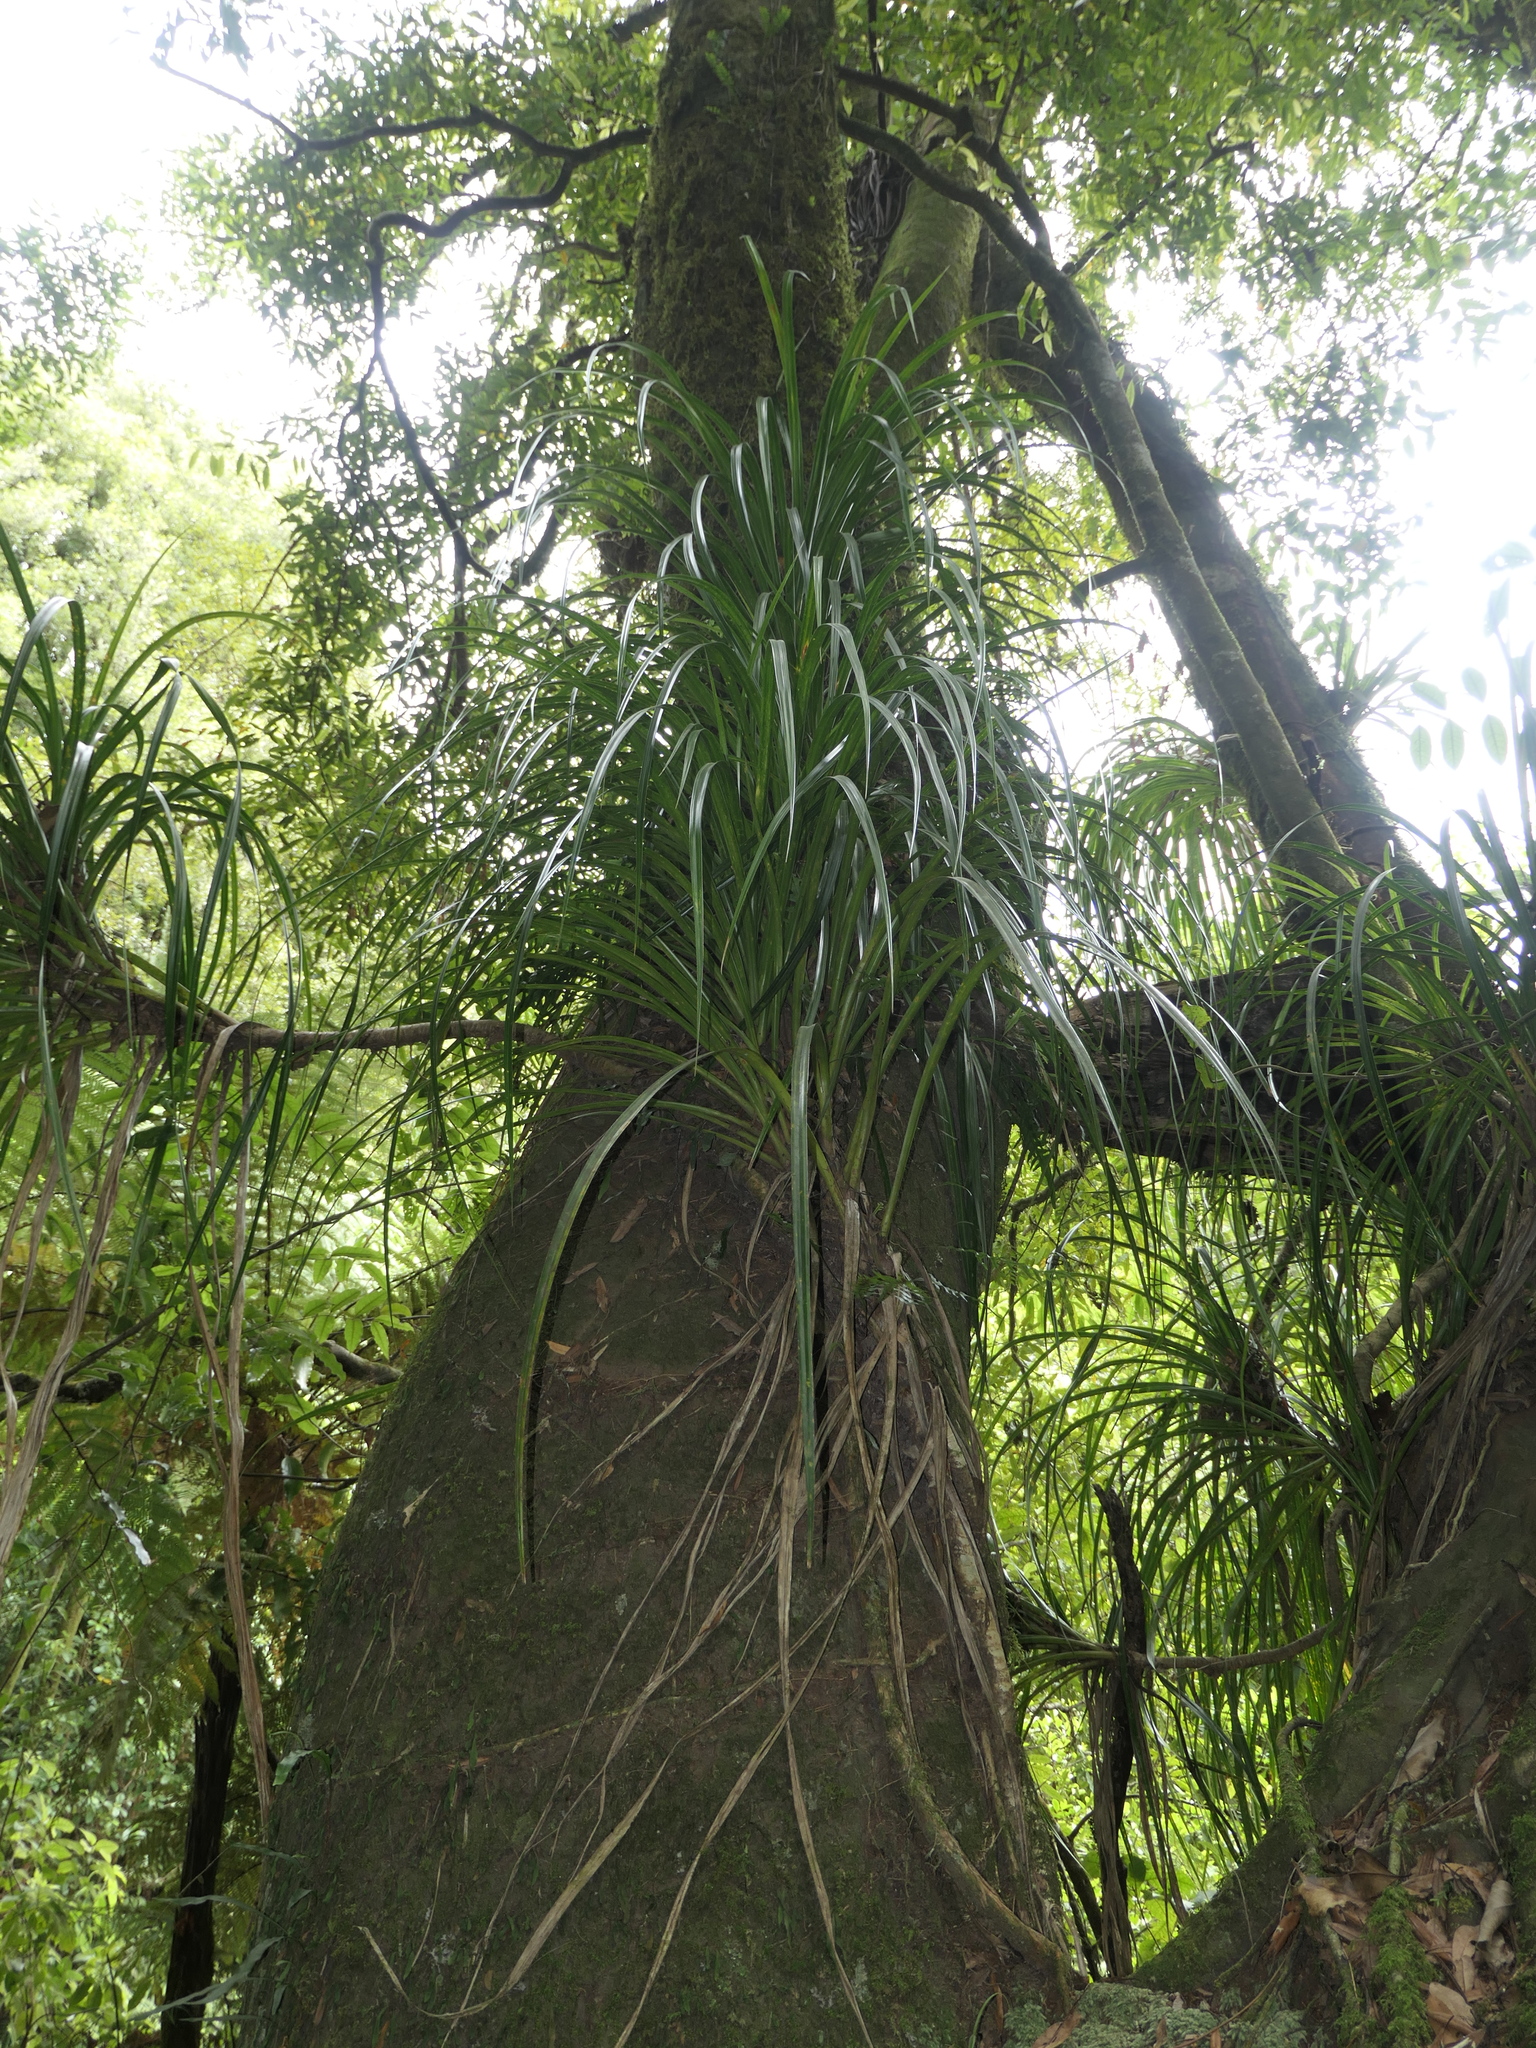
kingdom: Plantae
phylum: Tracheophyta
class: Liliopsida
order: Pandanales
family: Pandanaceae
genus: Freycinetia
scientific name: Freycinetia banksii
